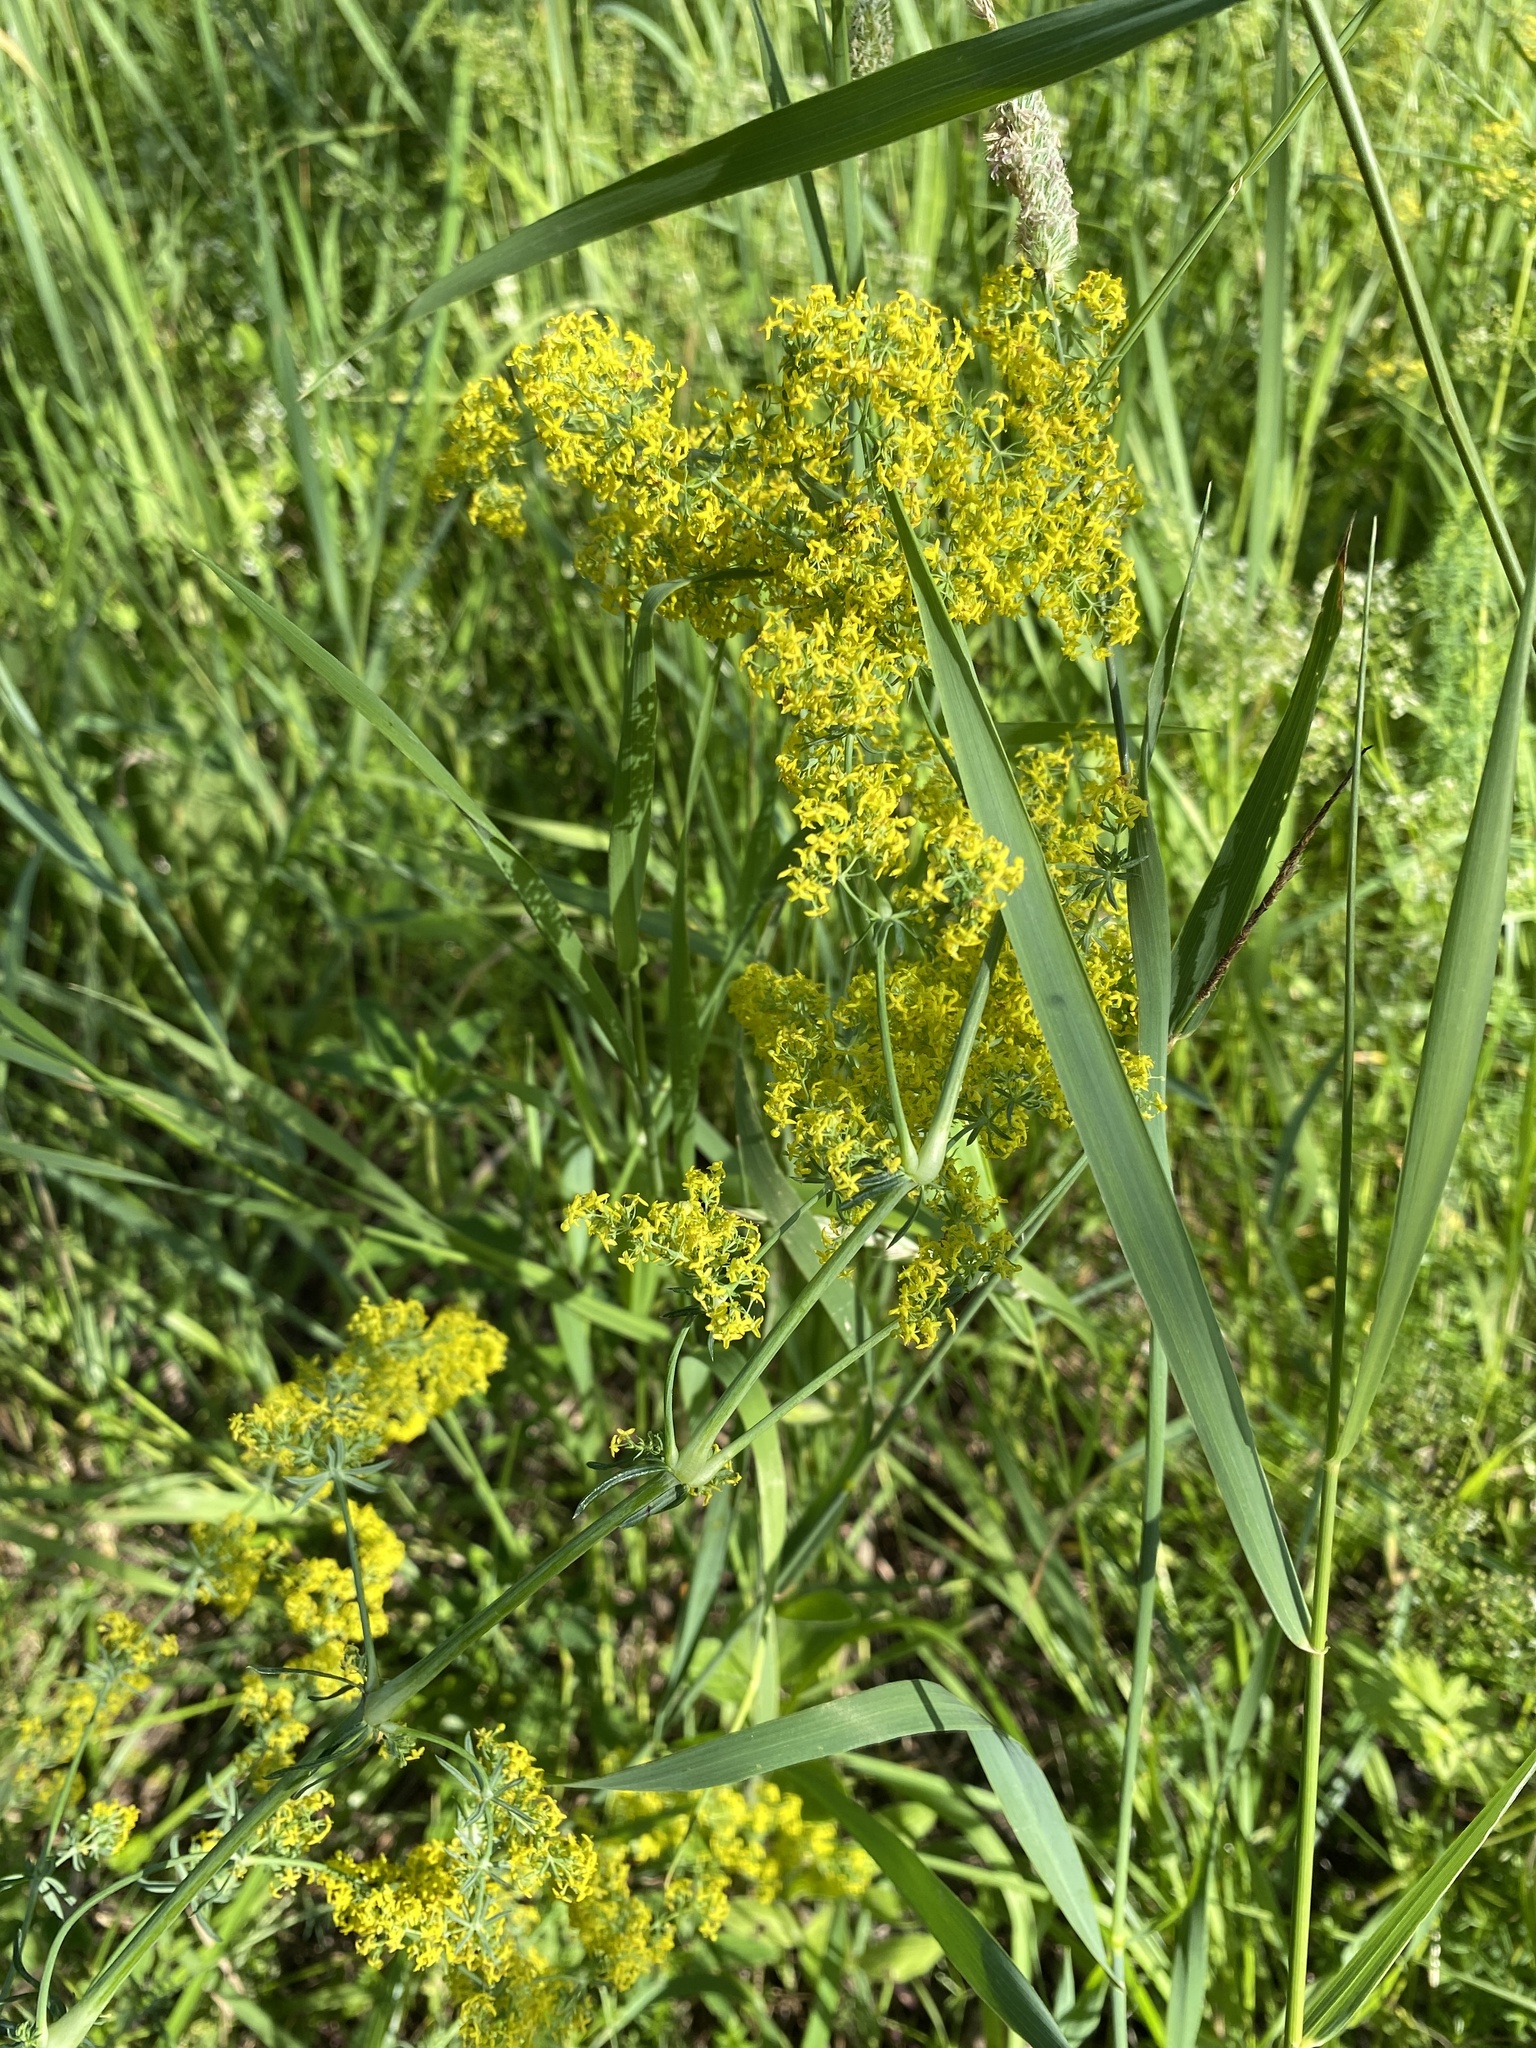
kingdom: Plantae
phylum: Tracheophyta
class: Magnoliopsida
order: Gentianales
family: Rubiaceae
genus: Galium
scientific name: Galium verum
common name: Lady's bedstraw
